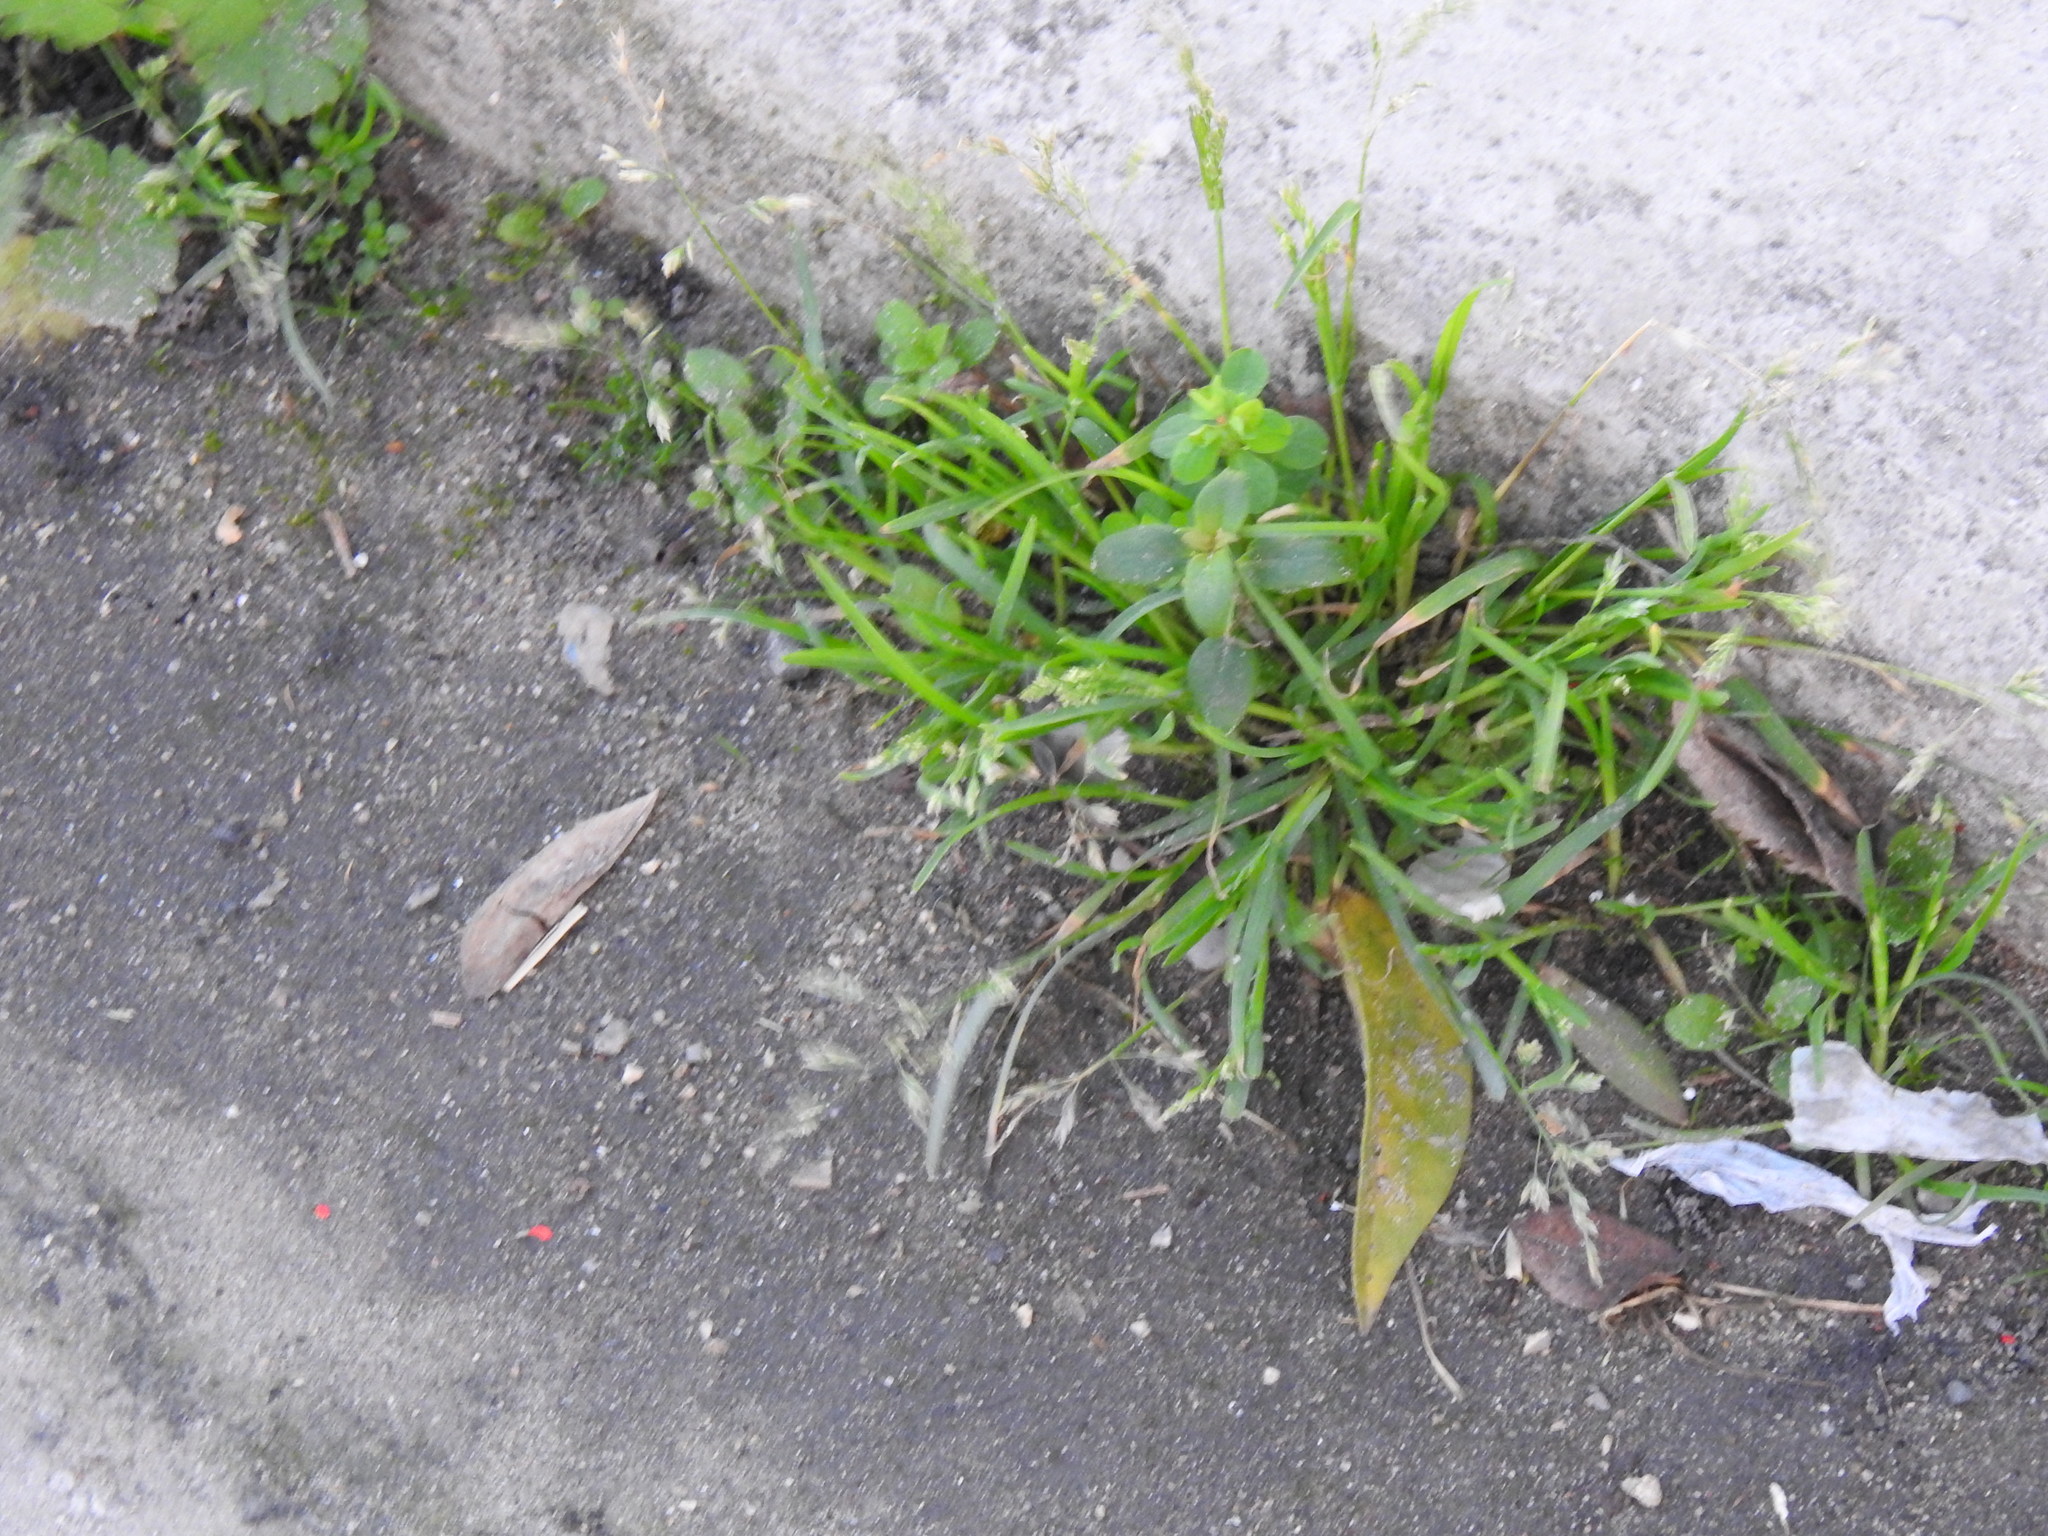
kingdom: Plantae
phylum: Tracheophyta
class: Liliopsida
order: Poales
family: Poaceae
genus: Poa
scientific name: Poa annua
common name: Annual bluegrass
